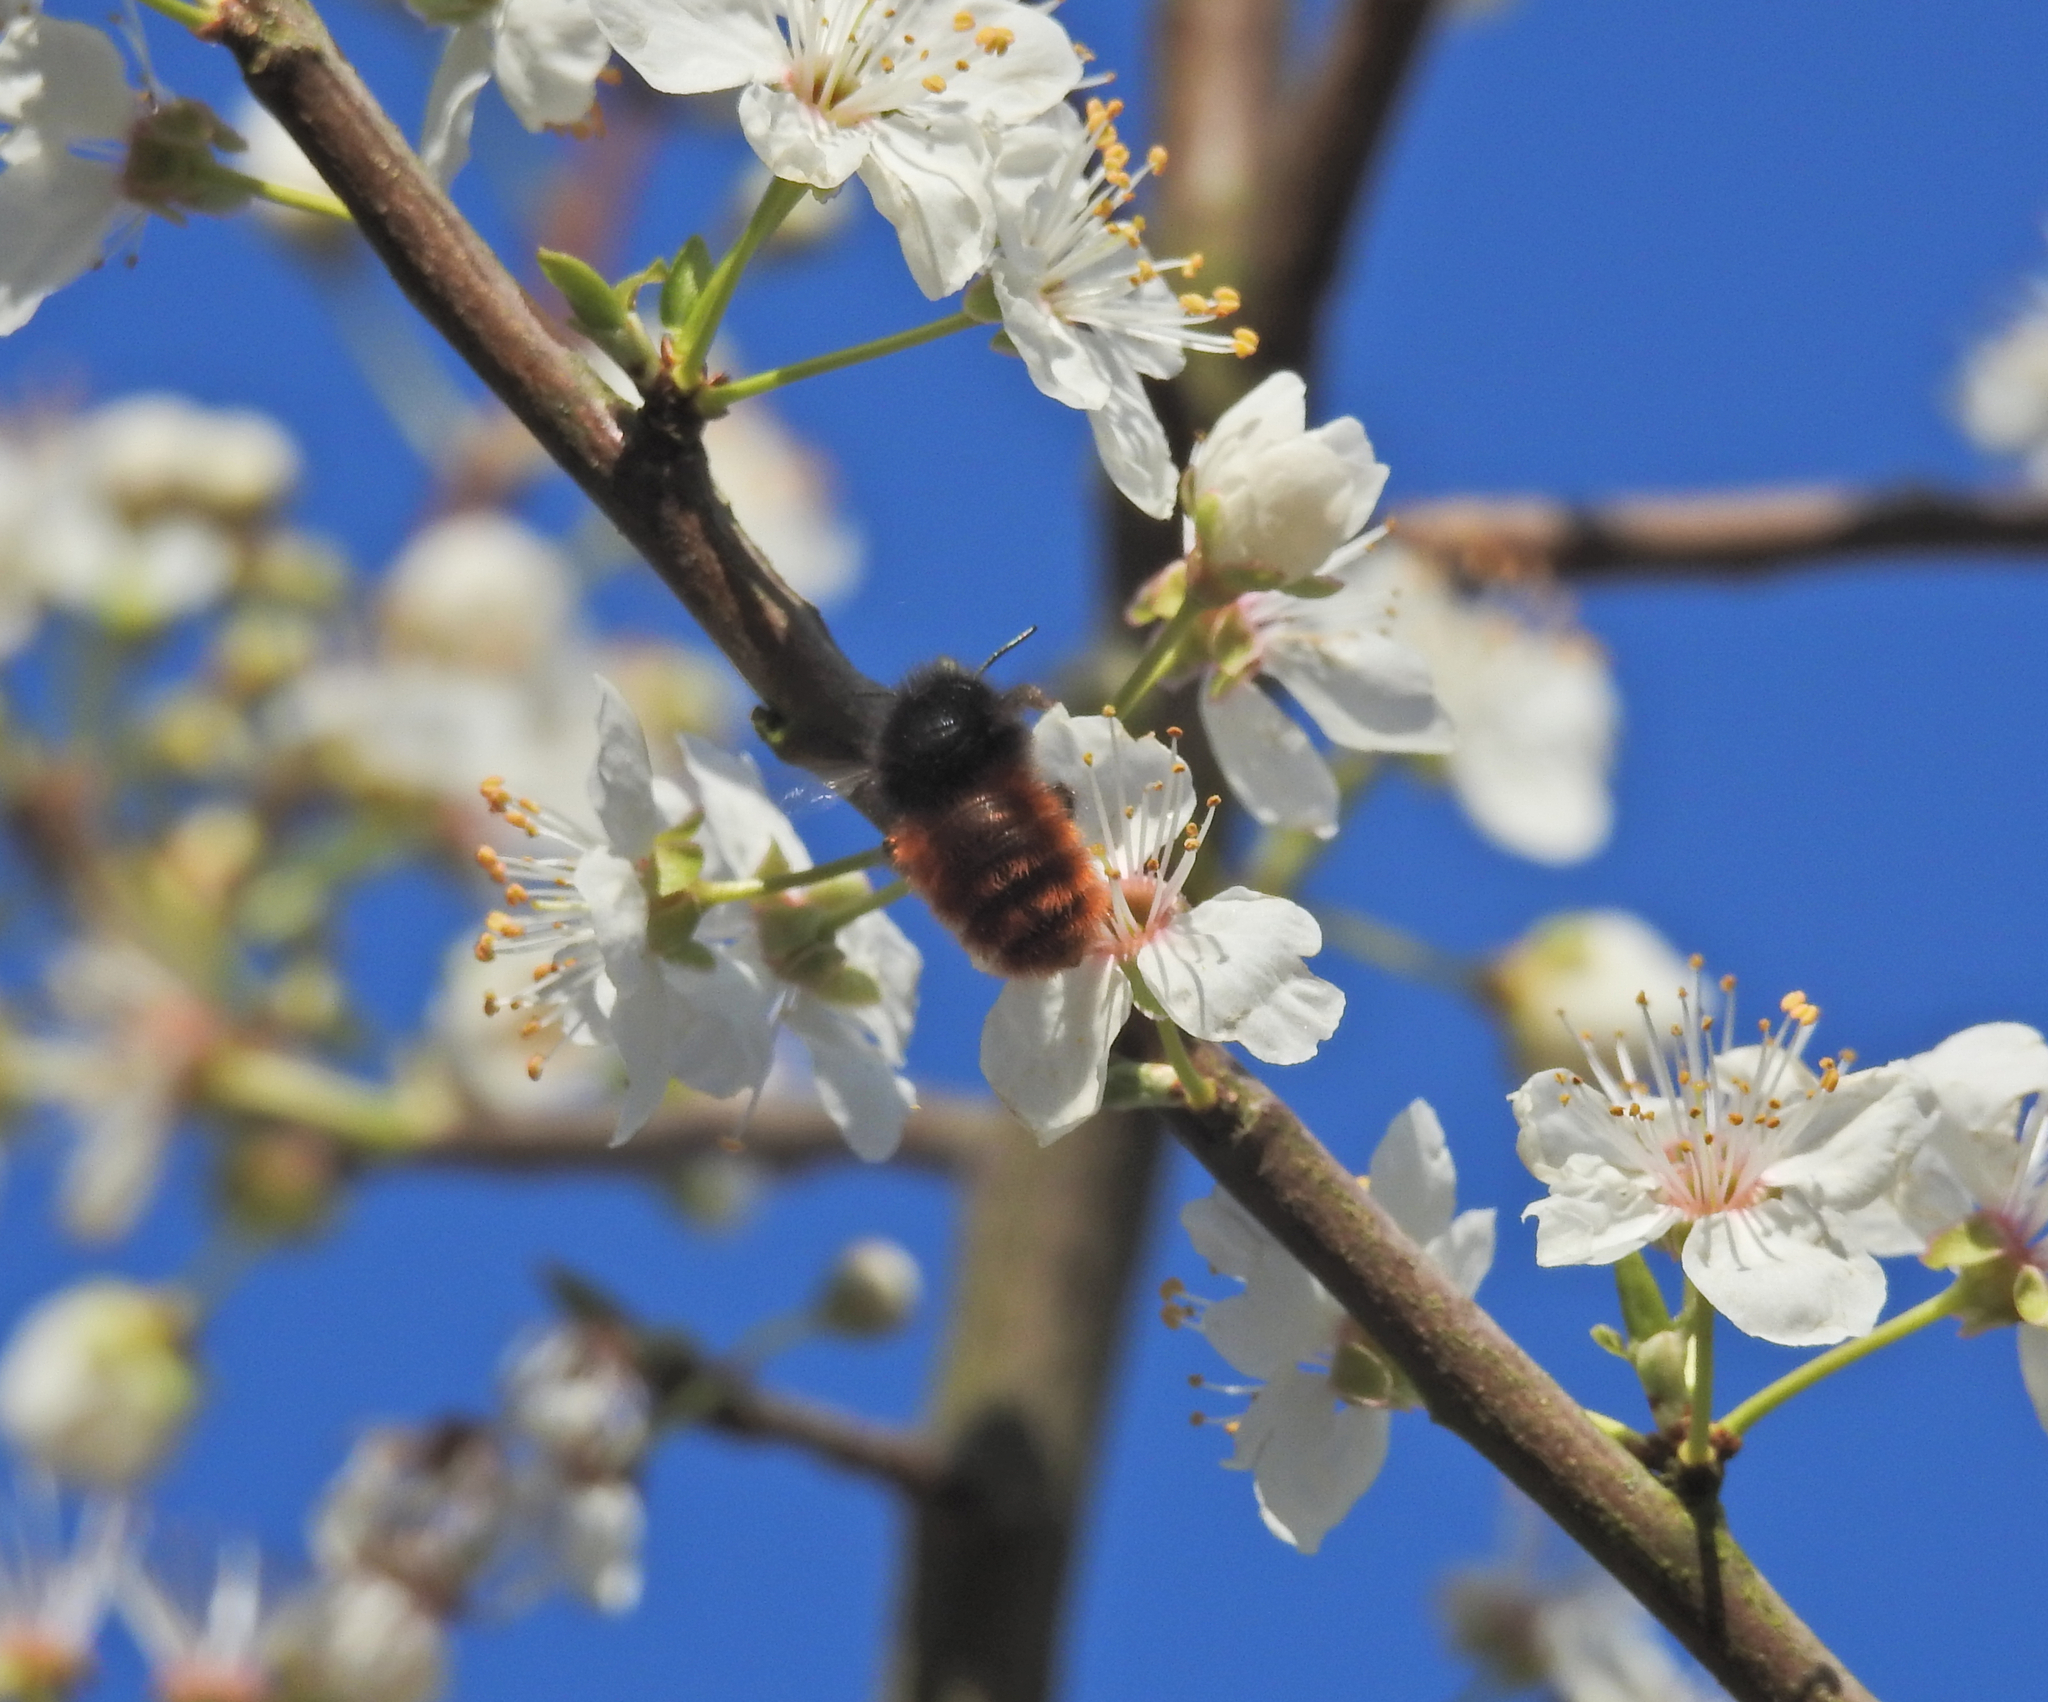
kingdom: Animalia
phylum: Arthropoda
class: Insecta
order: Hymenoptera
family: Megachilidae
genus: Osmia
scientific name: Osmia cornuta
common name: Mason bee
